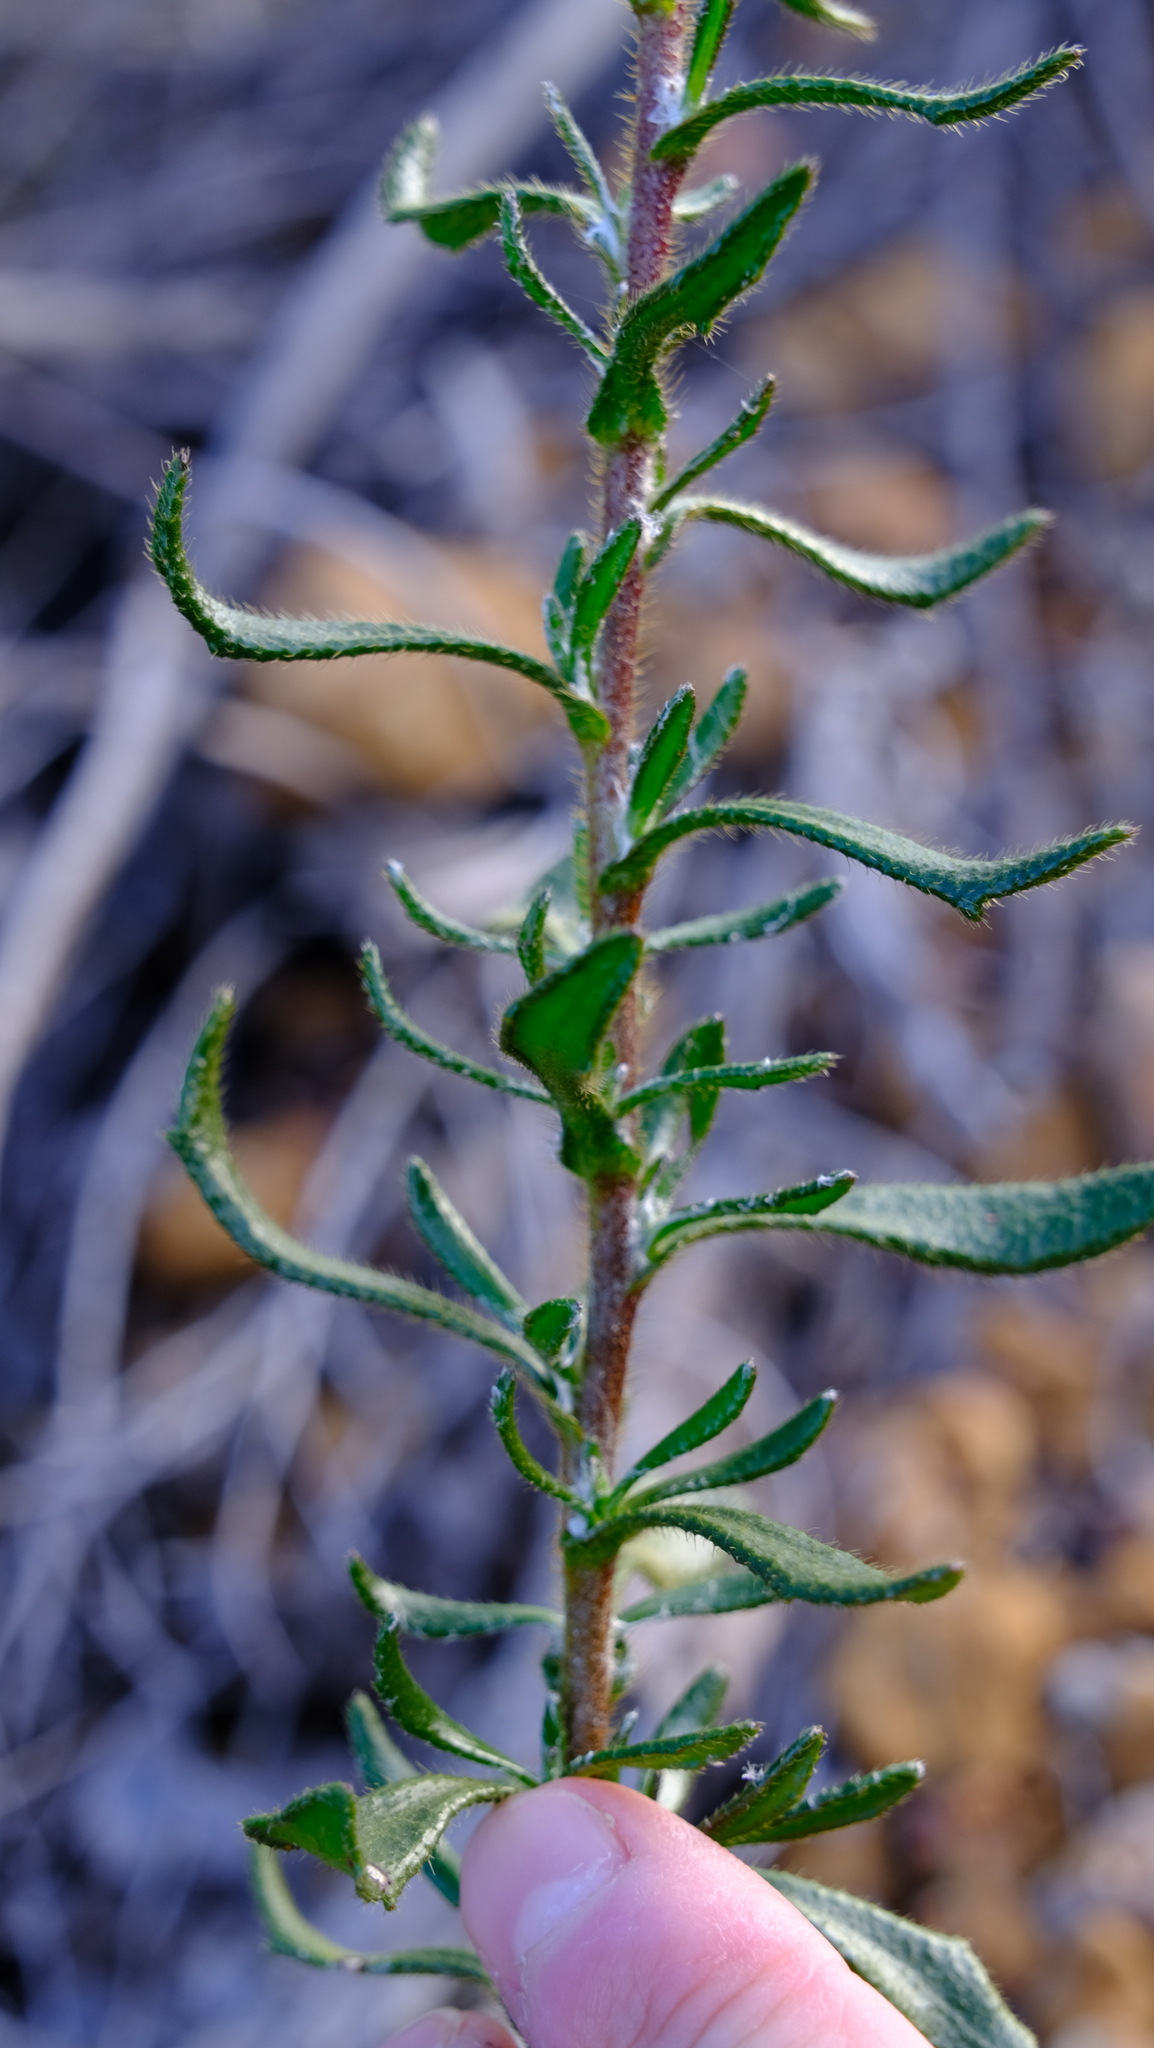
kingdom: Plantae
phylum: Tracheophyta
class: Magnoliopsida
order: Asterales
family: Goodeniaceae
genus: Scaevola
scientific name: Scaevola glandulifera
